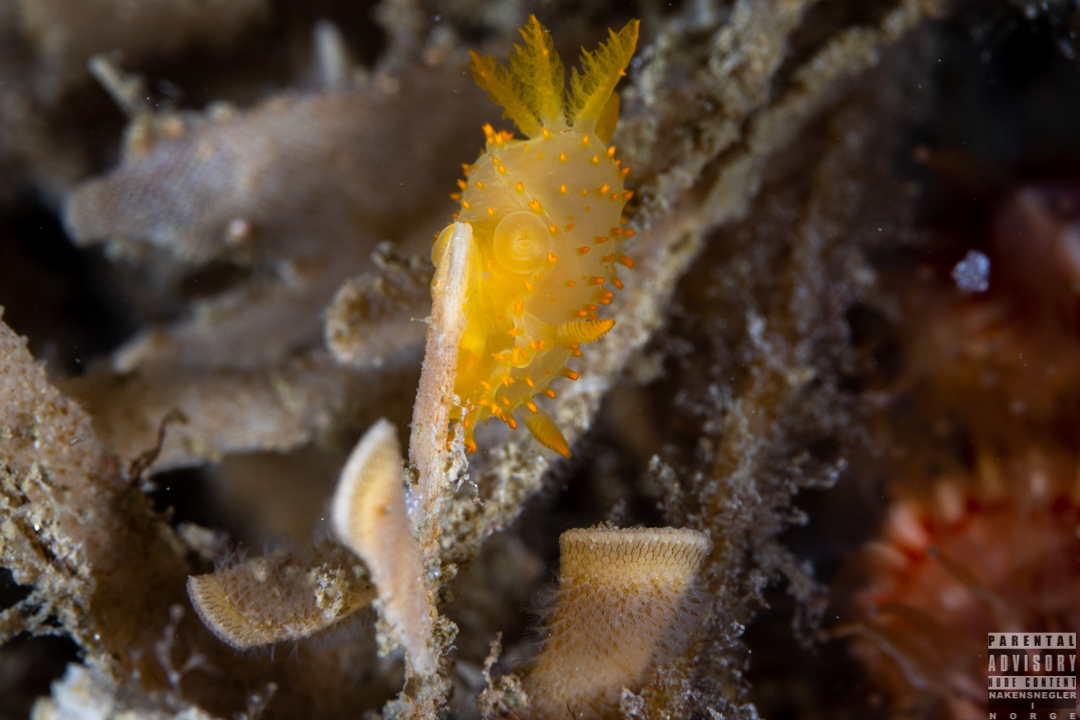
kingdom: Animalia
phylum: Mollusca
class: Gastropoda
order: Nudibranchia
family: Polyceridae
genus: Crimora
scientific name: Crimora papillata
